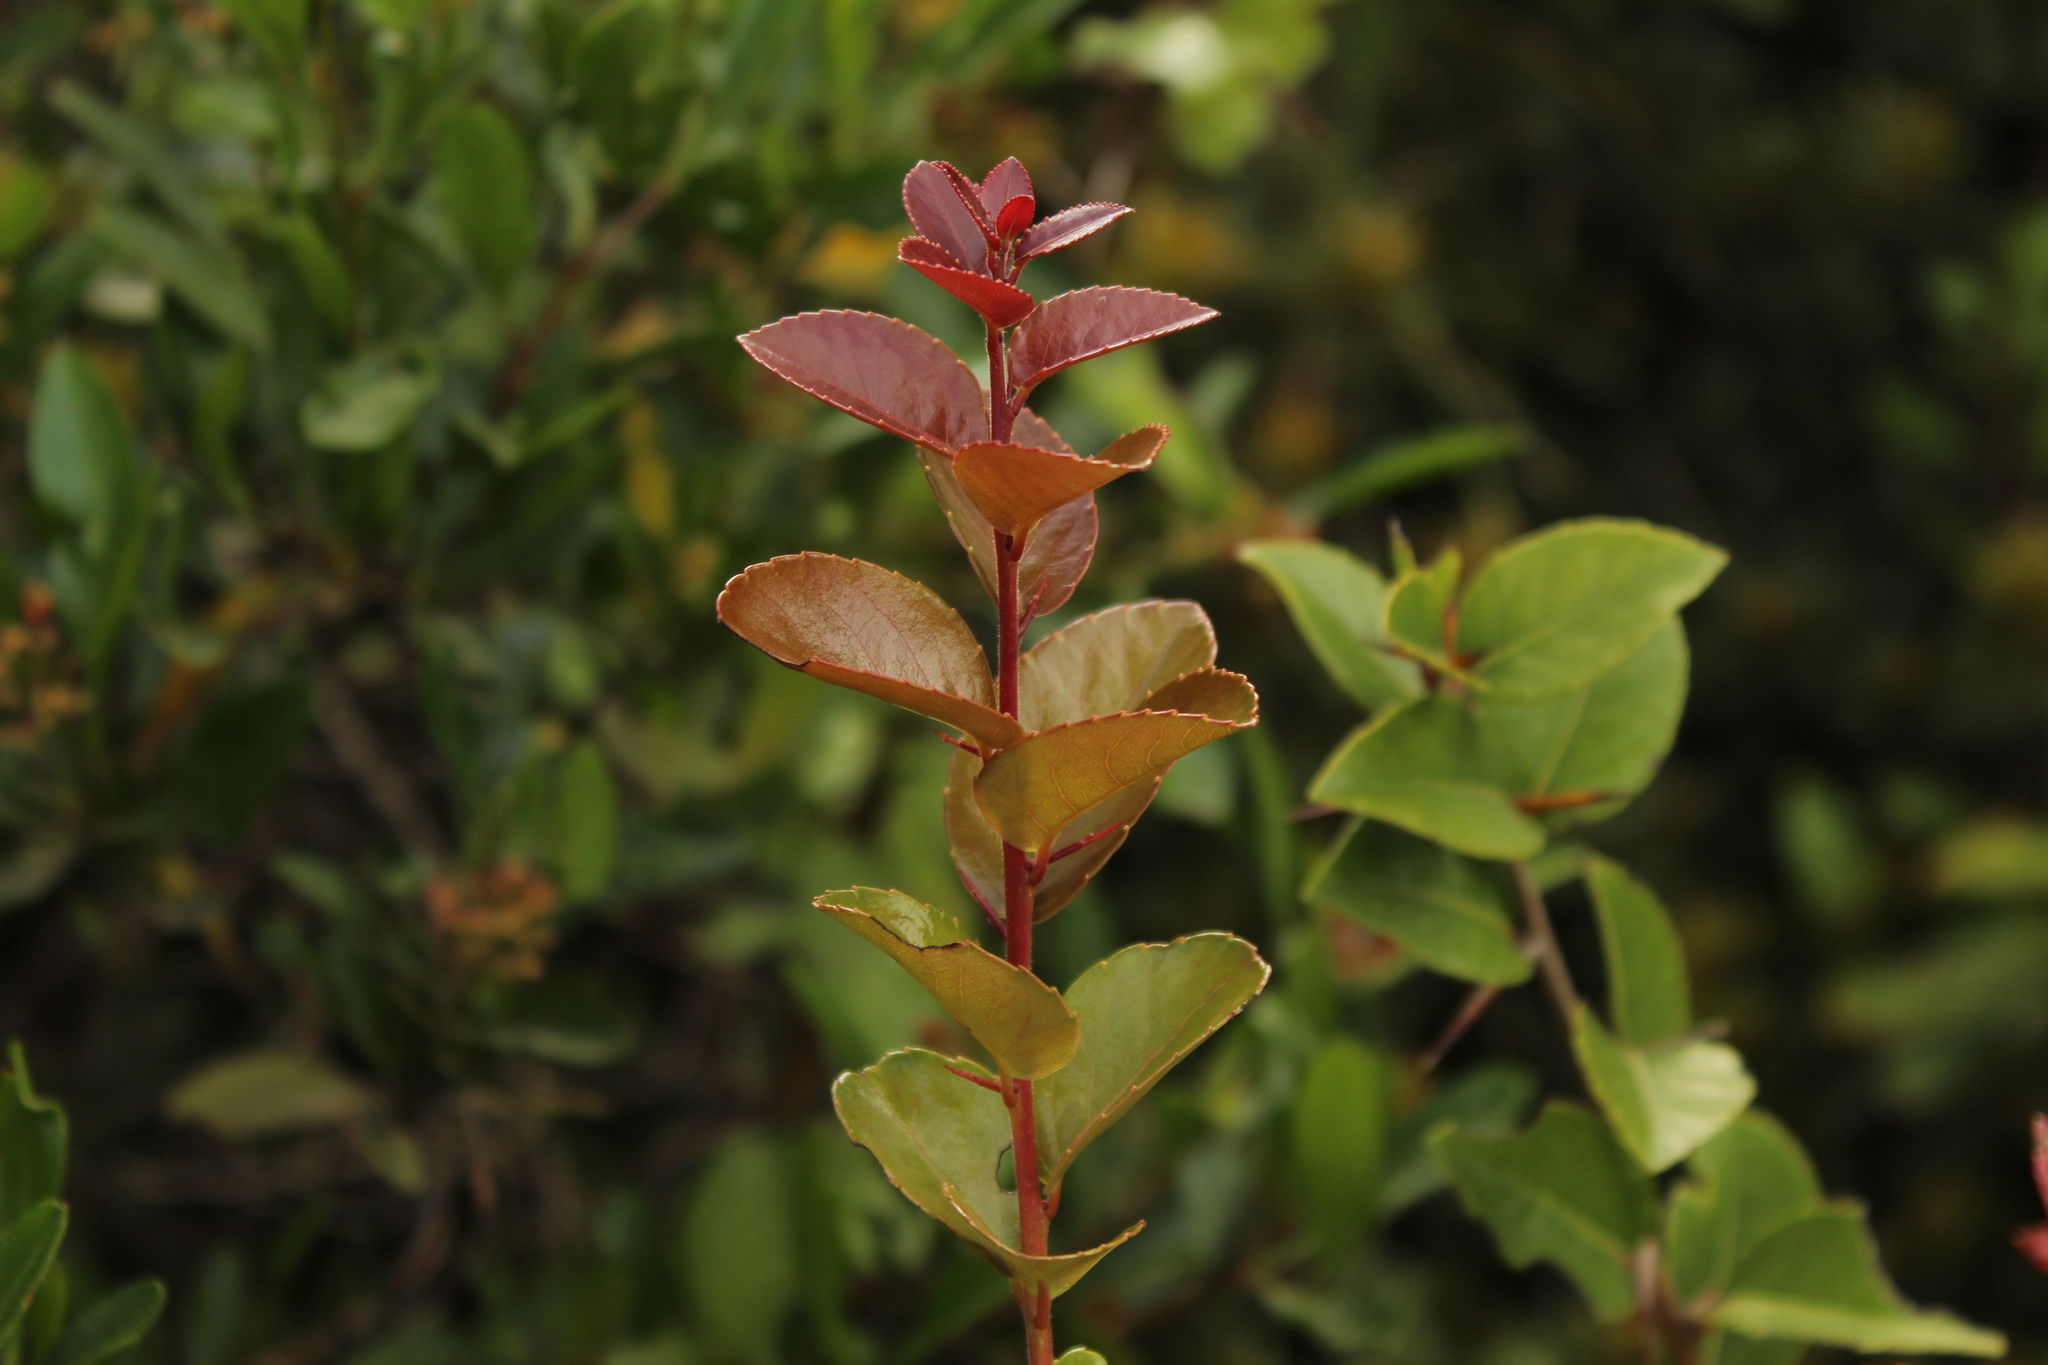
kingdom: Plantae
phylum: Tracheophyta
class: Magnoliopsida
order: Malpighiales
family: Salicaceae
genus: Xylosma
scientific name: Xylosma spiculifera
